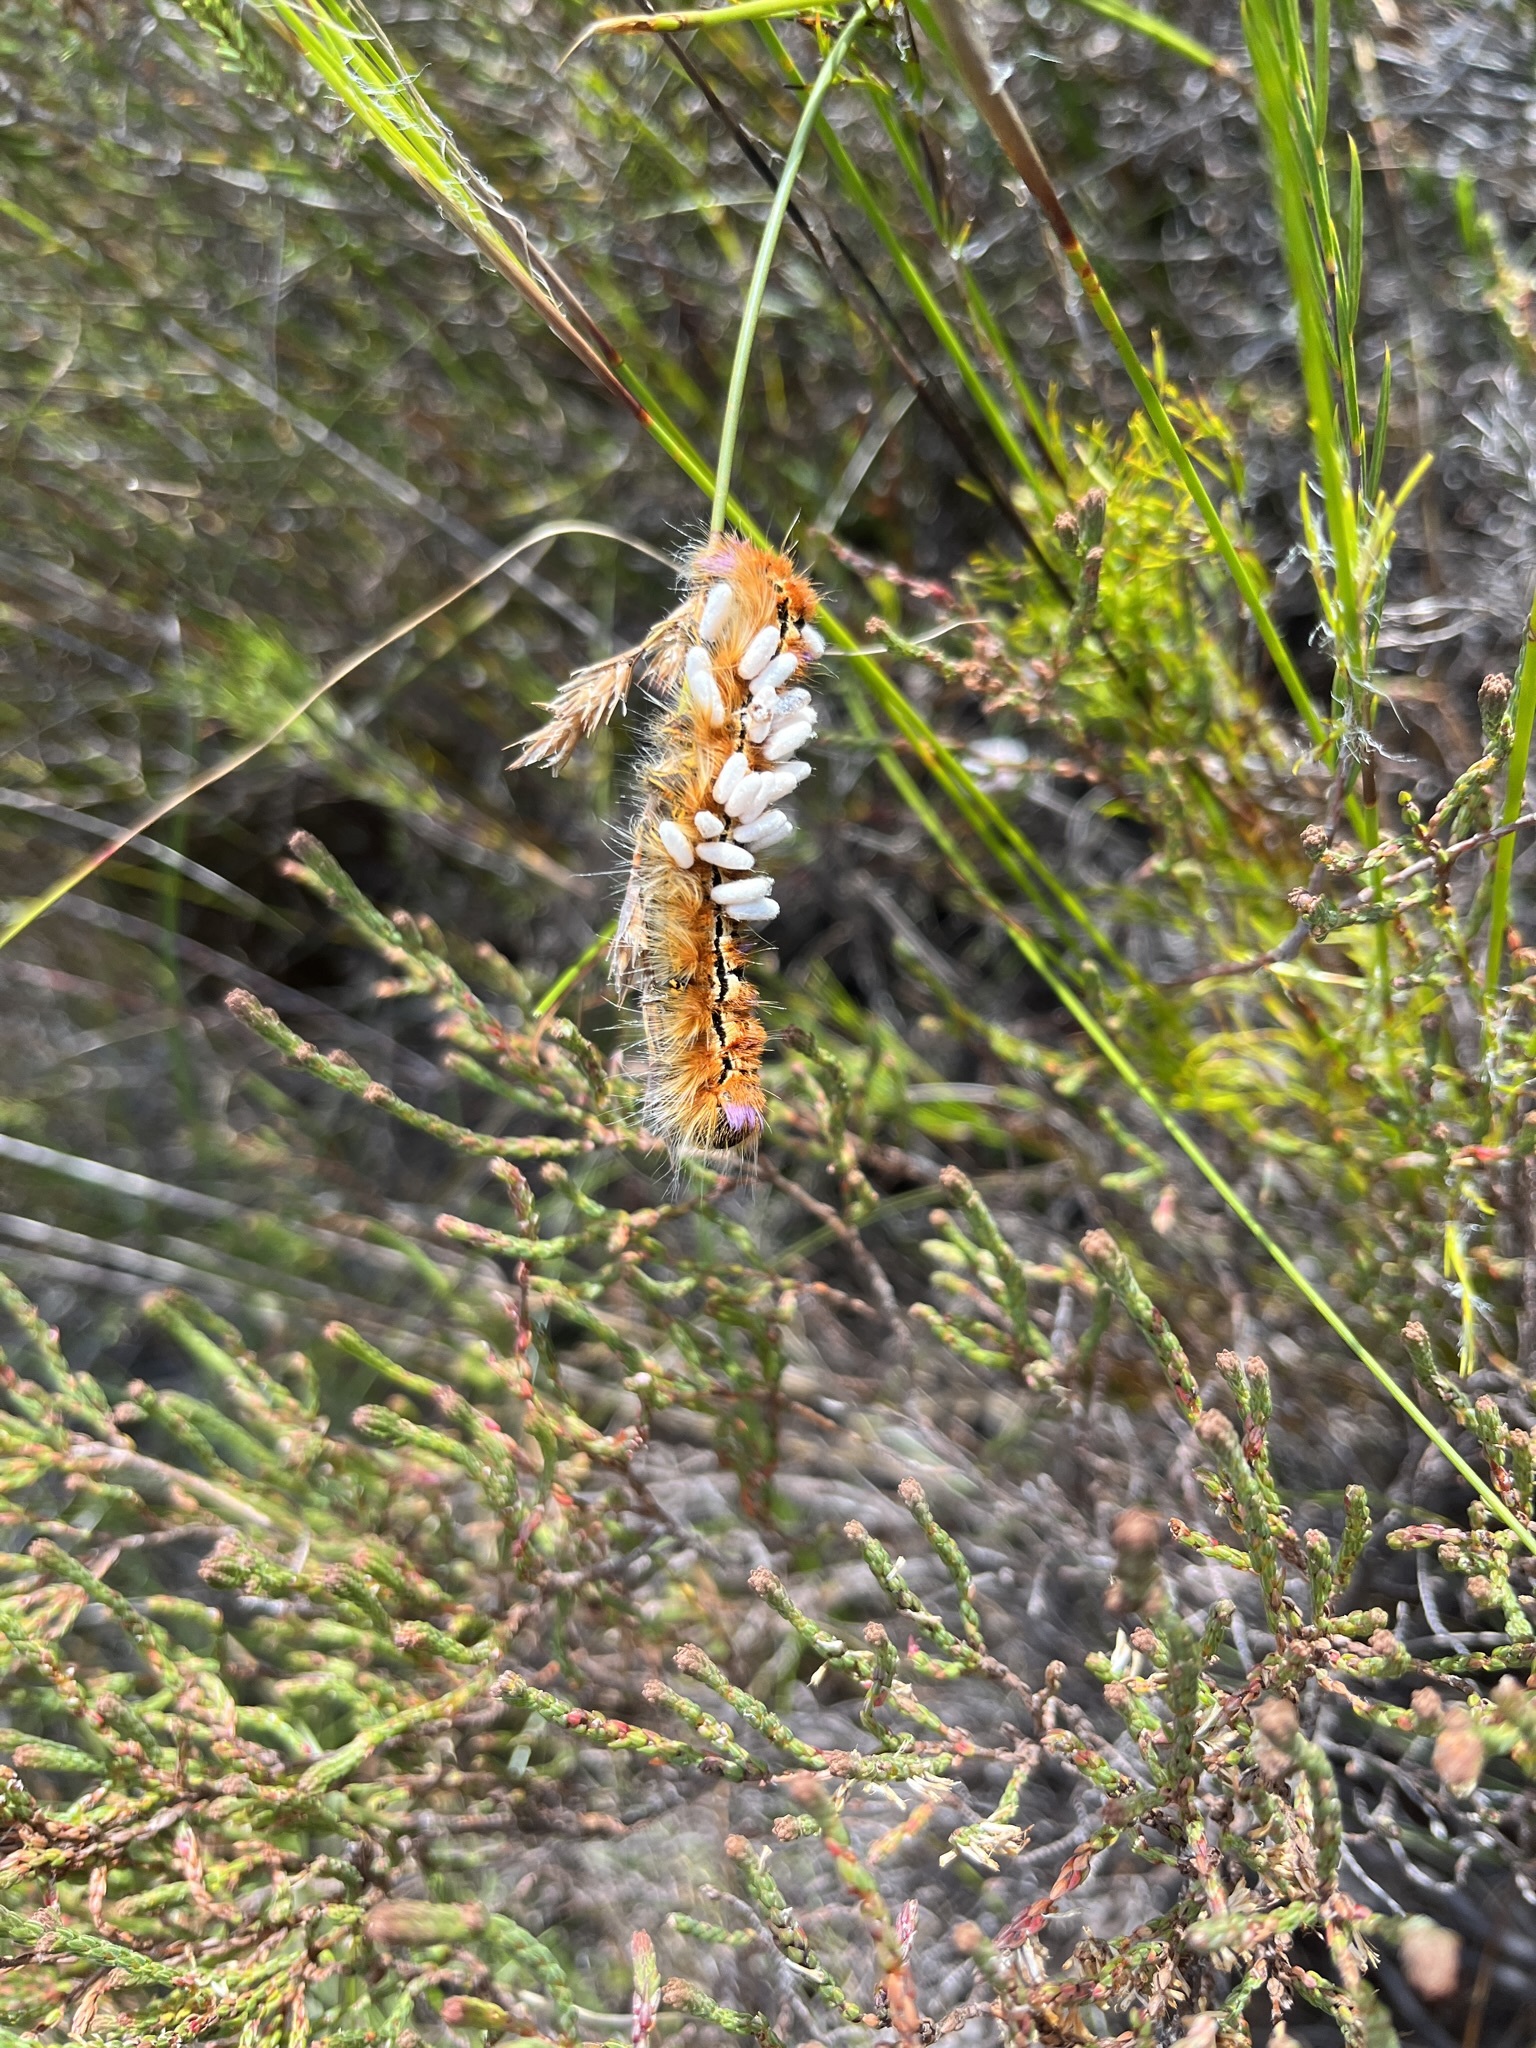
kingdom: Animalia
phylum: Arthropoda
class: Insecta
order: Lepidoptera
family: Lasiocampidae
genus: Eutricha
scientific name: Eutricha bifascia
